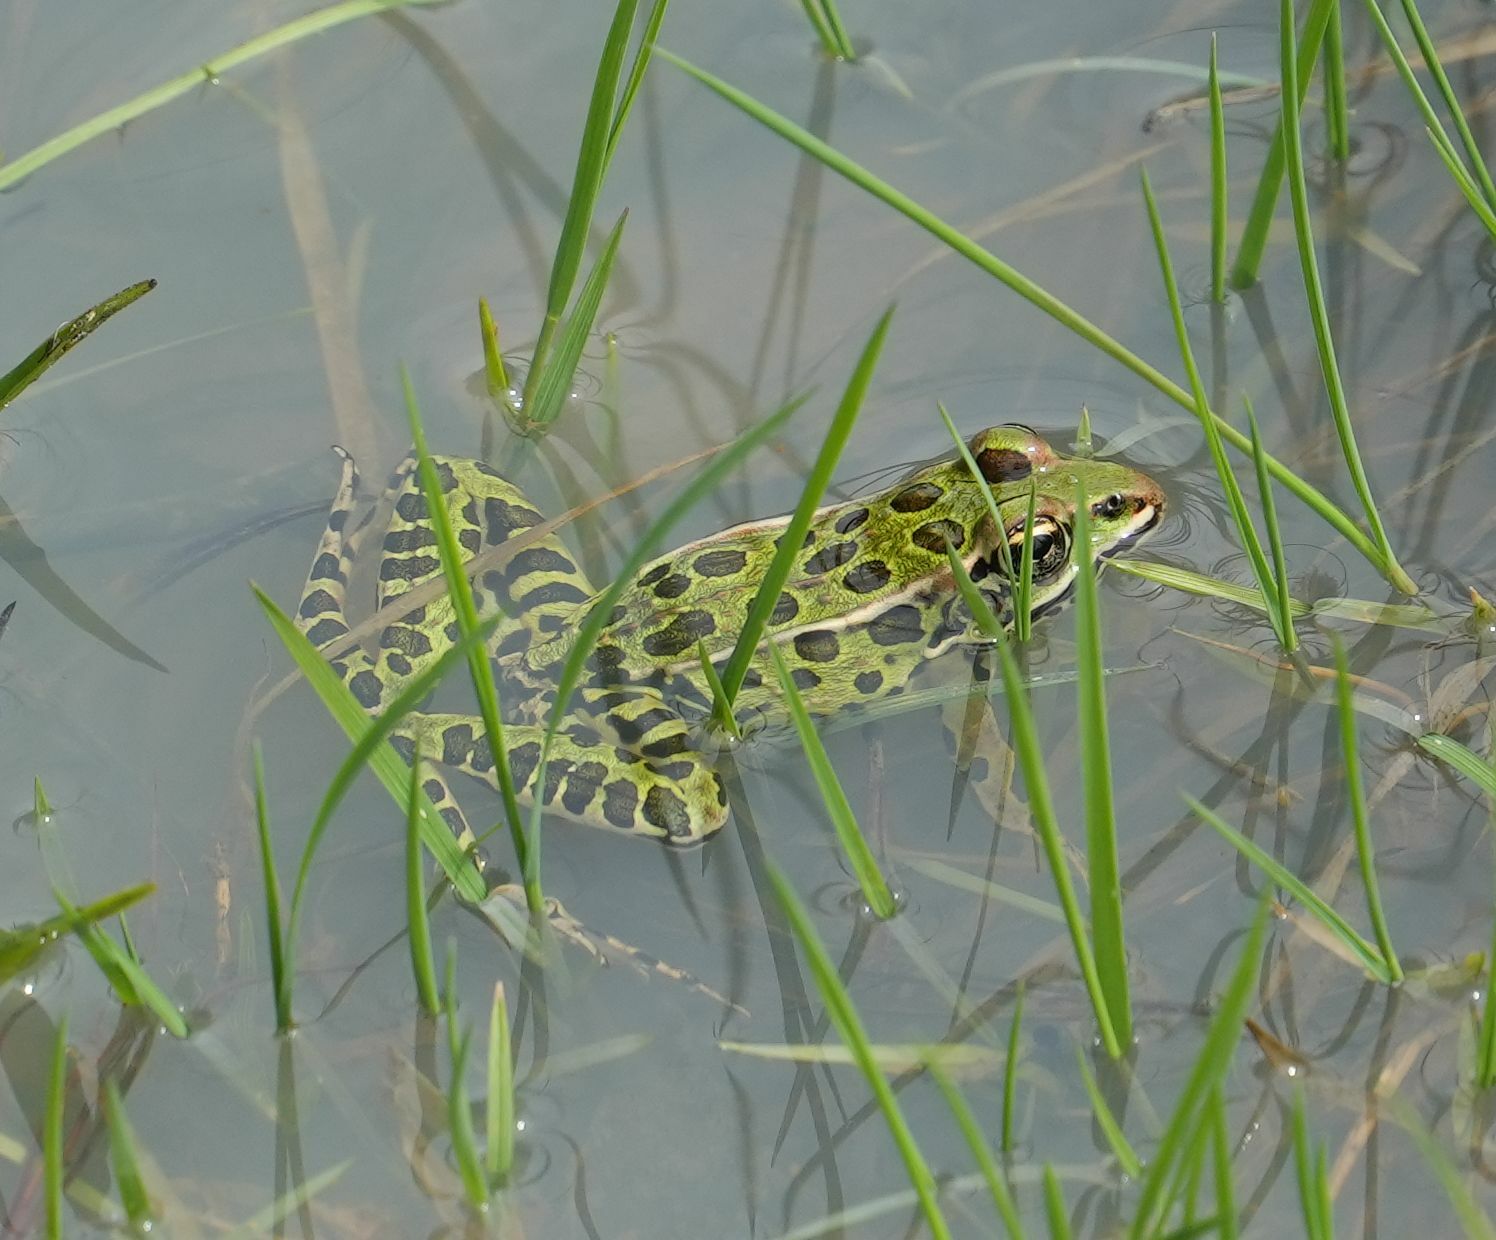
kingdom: Animalia
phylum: Chordata
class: Amphibia
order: Anura
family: Ranidae
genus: Lithobates
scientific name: Lithobates pipiens
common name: Northern leopard frog
